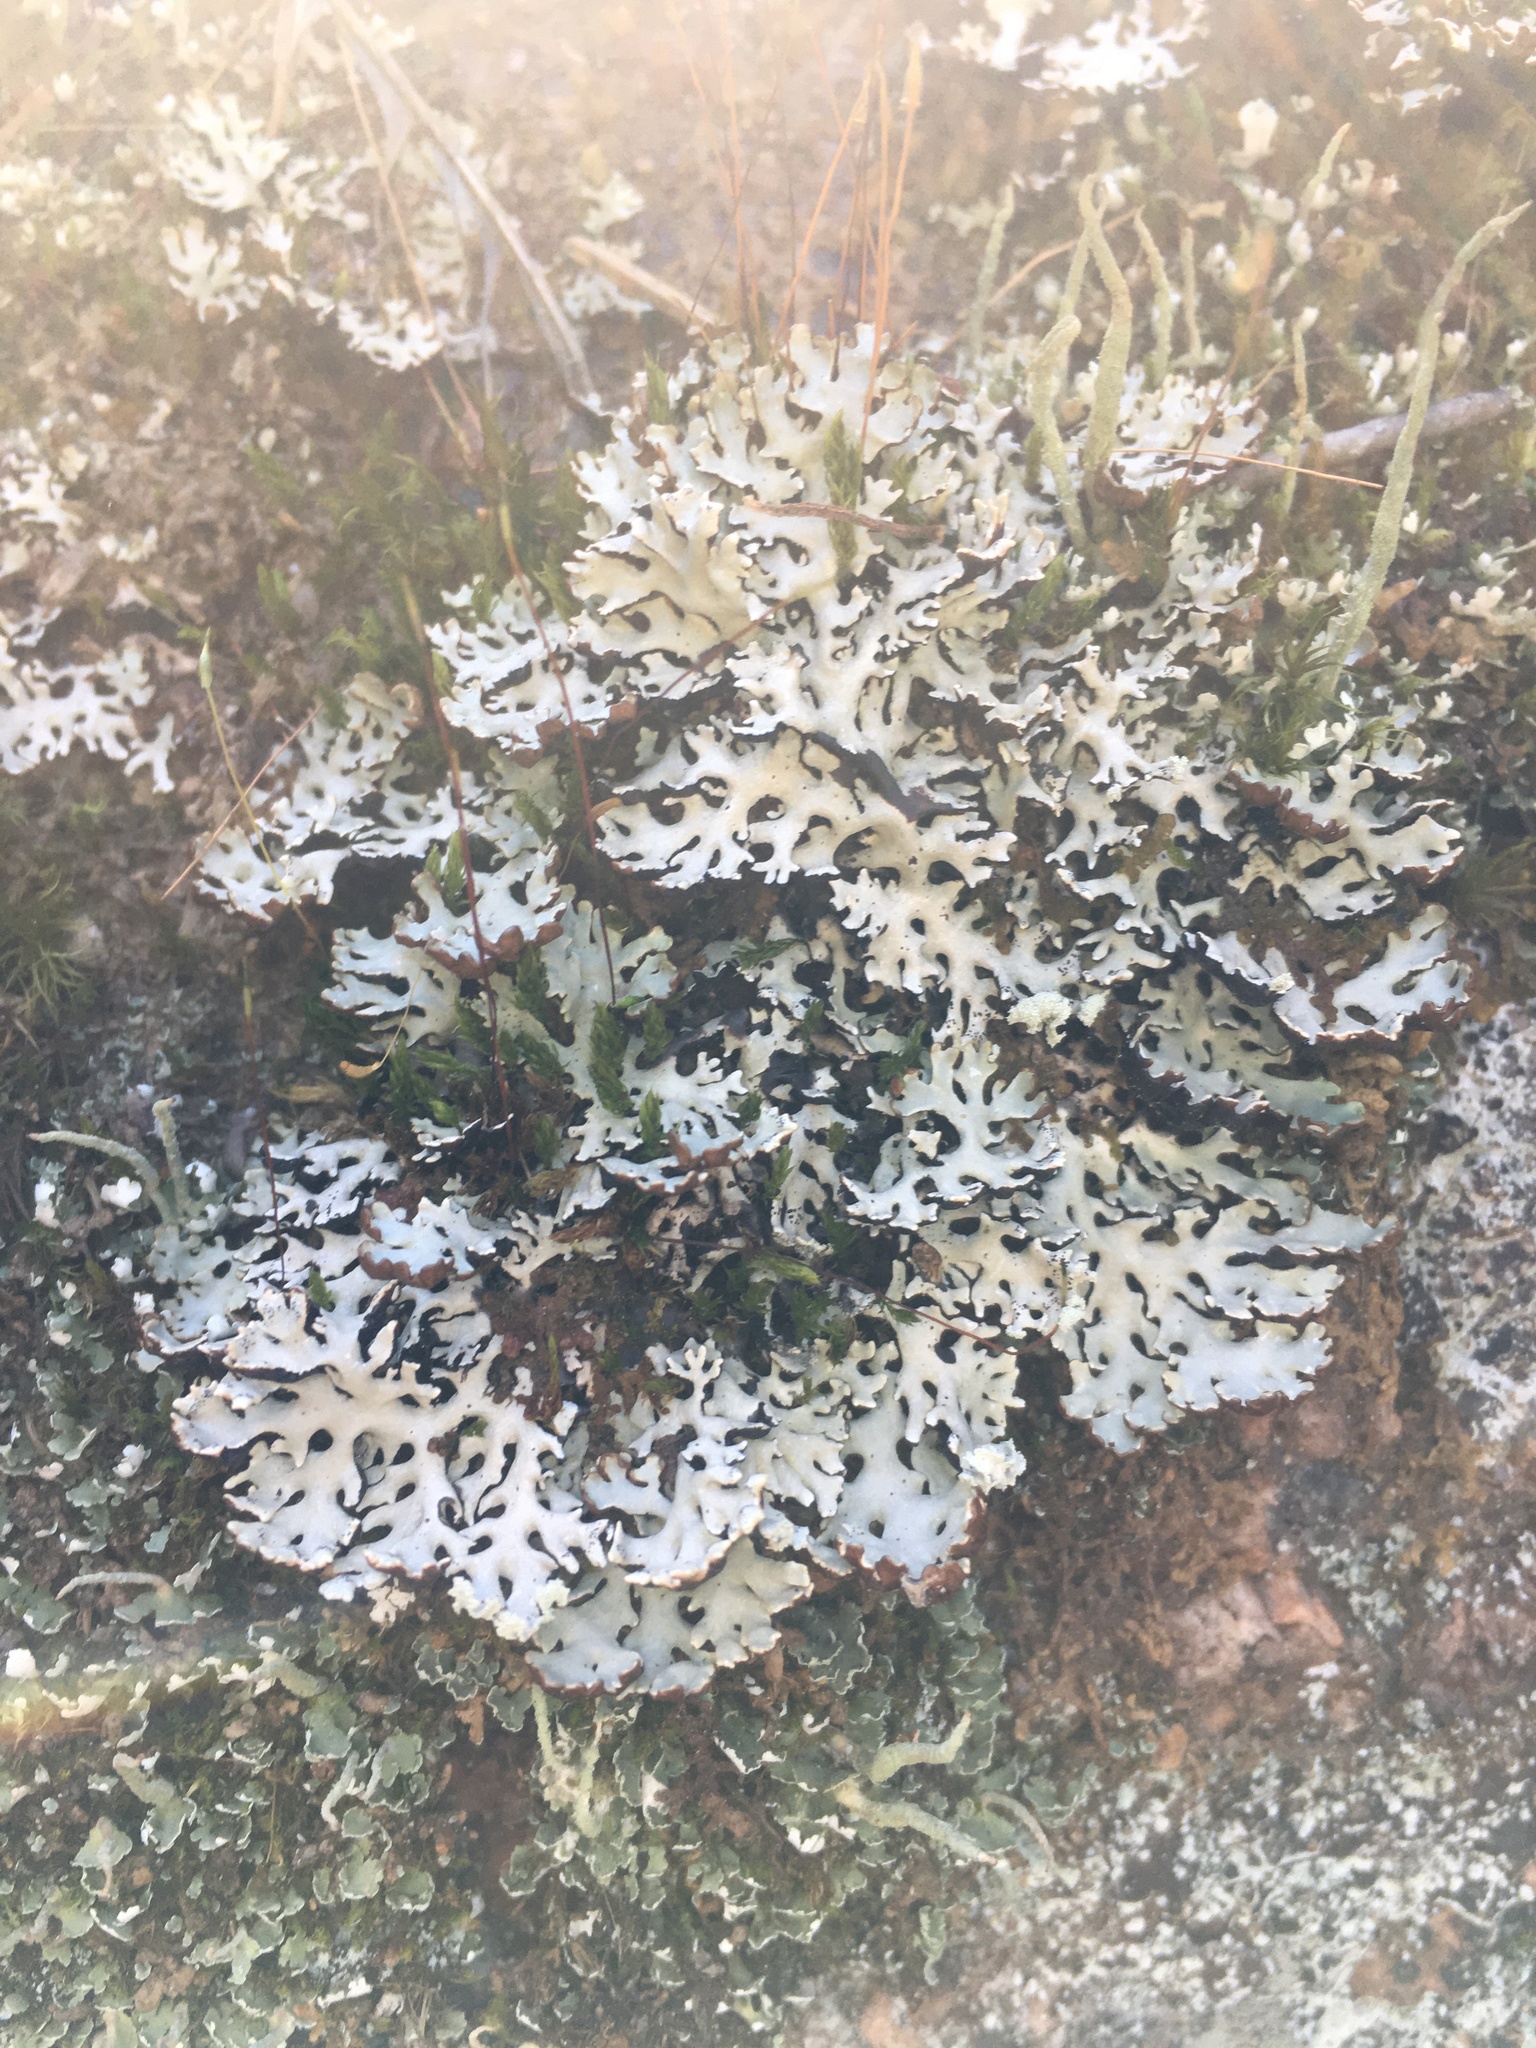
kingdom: Fungi
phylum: Ascomycota
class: Lecanoromycetes
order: Lecanorales
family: Parmeliaceae
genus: Hypogymnia
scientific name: Hypogymnia physodes
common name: Dark crottle
